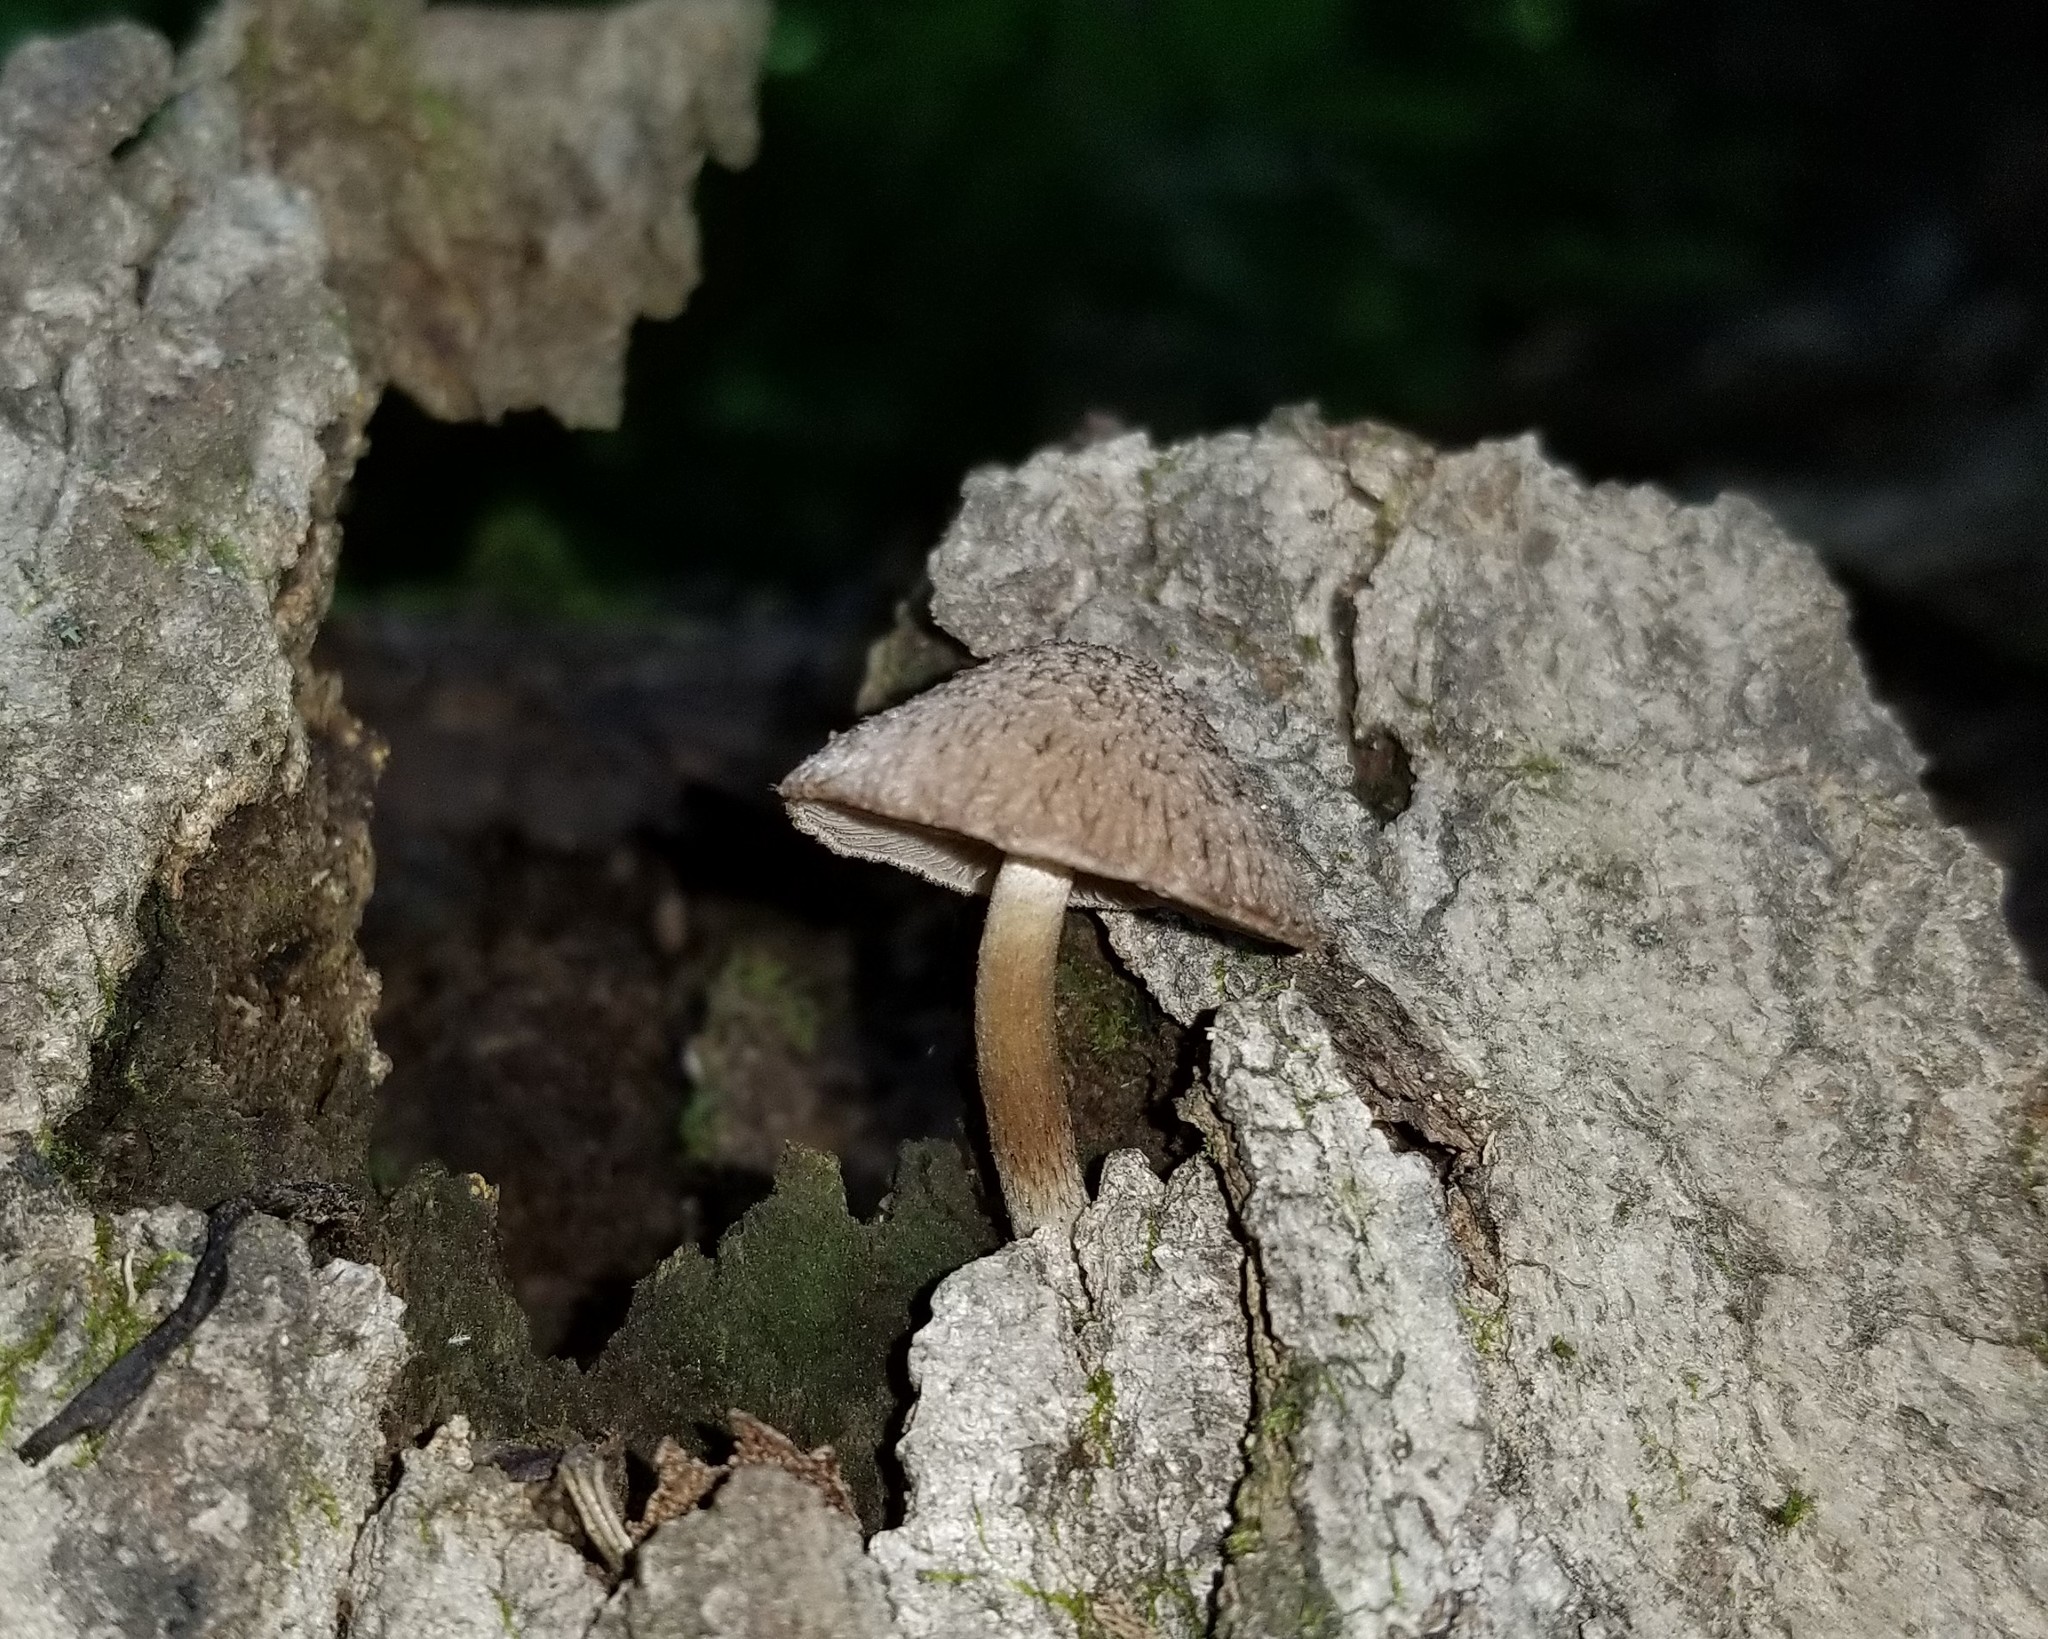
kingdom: Fungi
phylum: Basidiomycota
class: Agaricomycetes
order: Agaricales
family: Psathyrellaceae
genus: Cystoagaricus
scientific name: Cystoagaricus hirtosquamulosus
